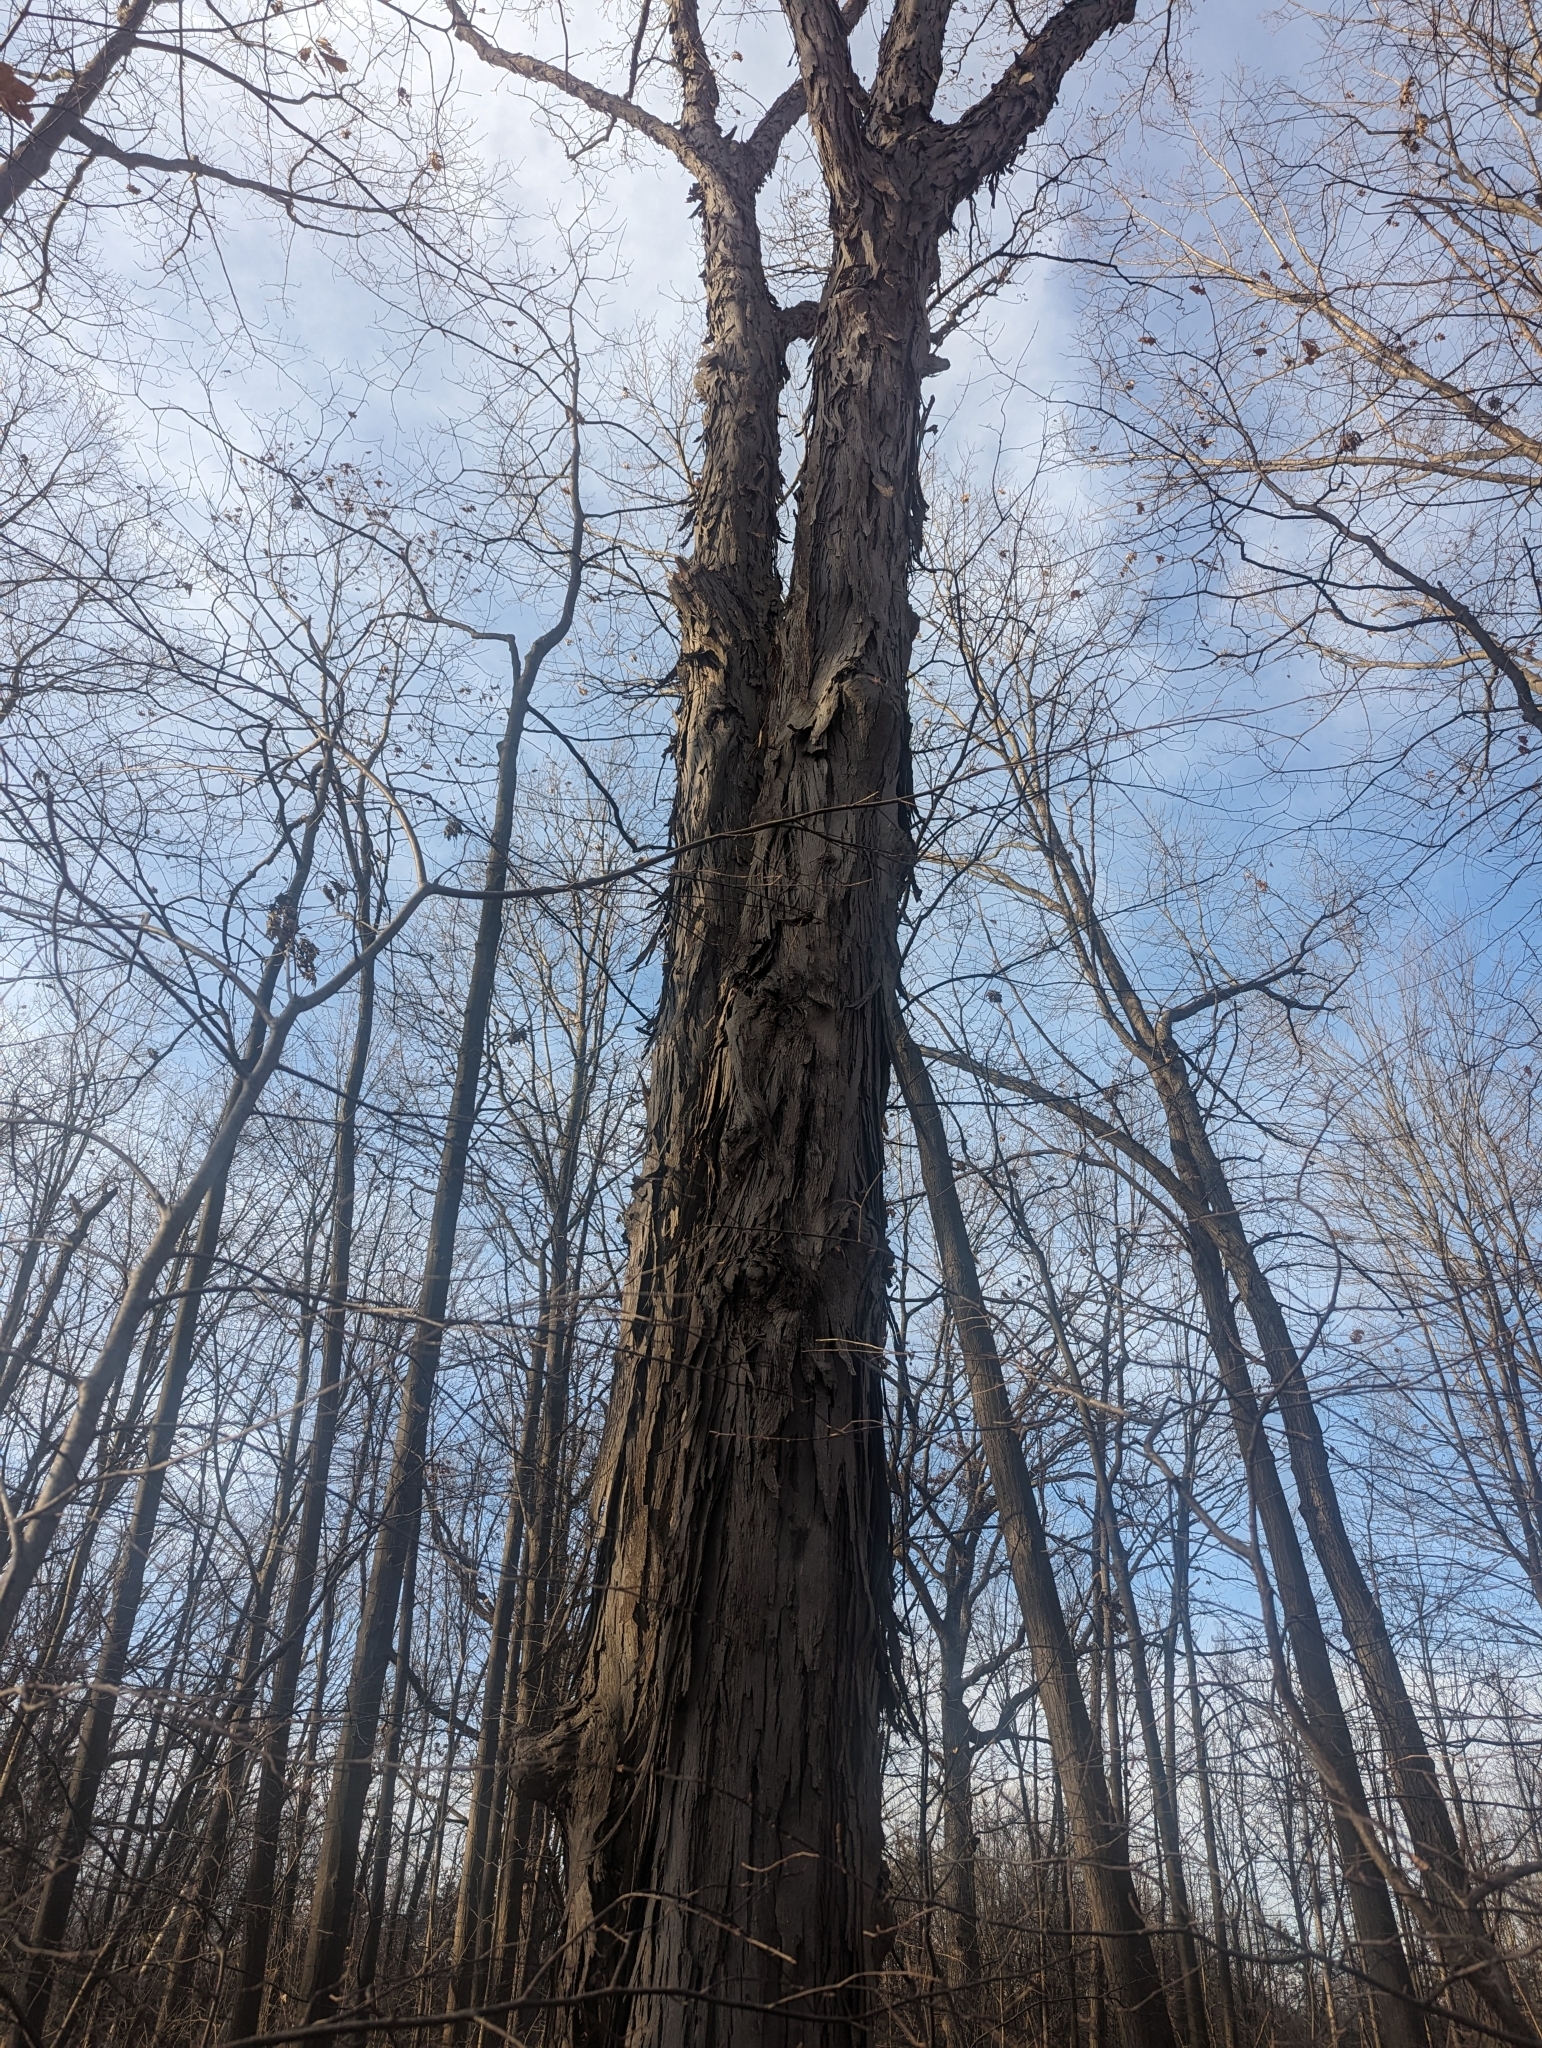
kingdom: Plantae
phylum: Tracheophyta
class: Magnoliopsida
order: Fagales
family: Juglandaceae
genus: Carya
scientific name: Carya ovata
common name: Shagbark hickory
